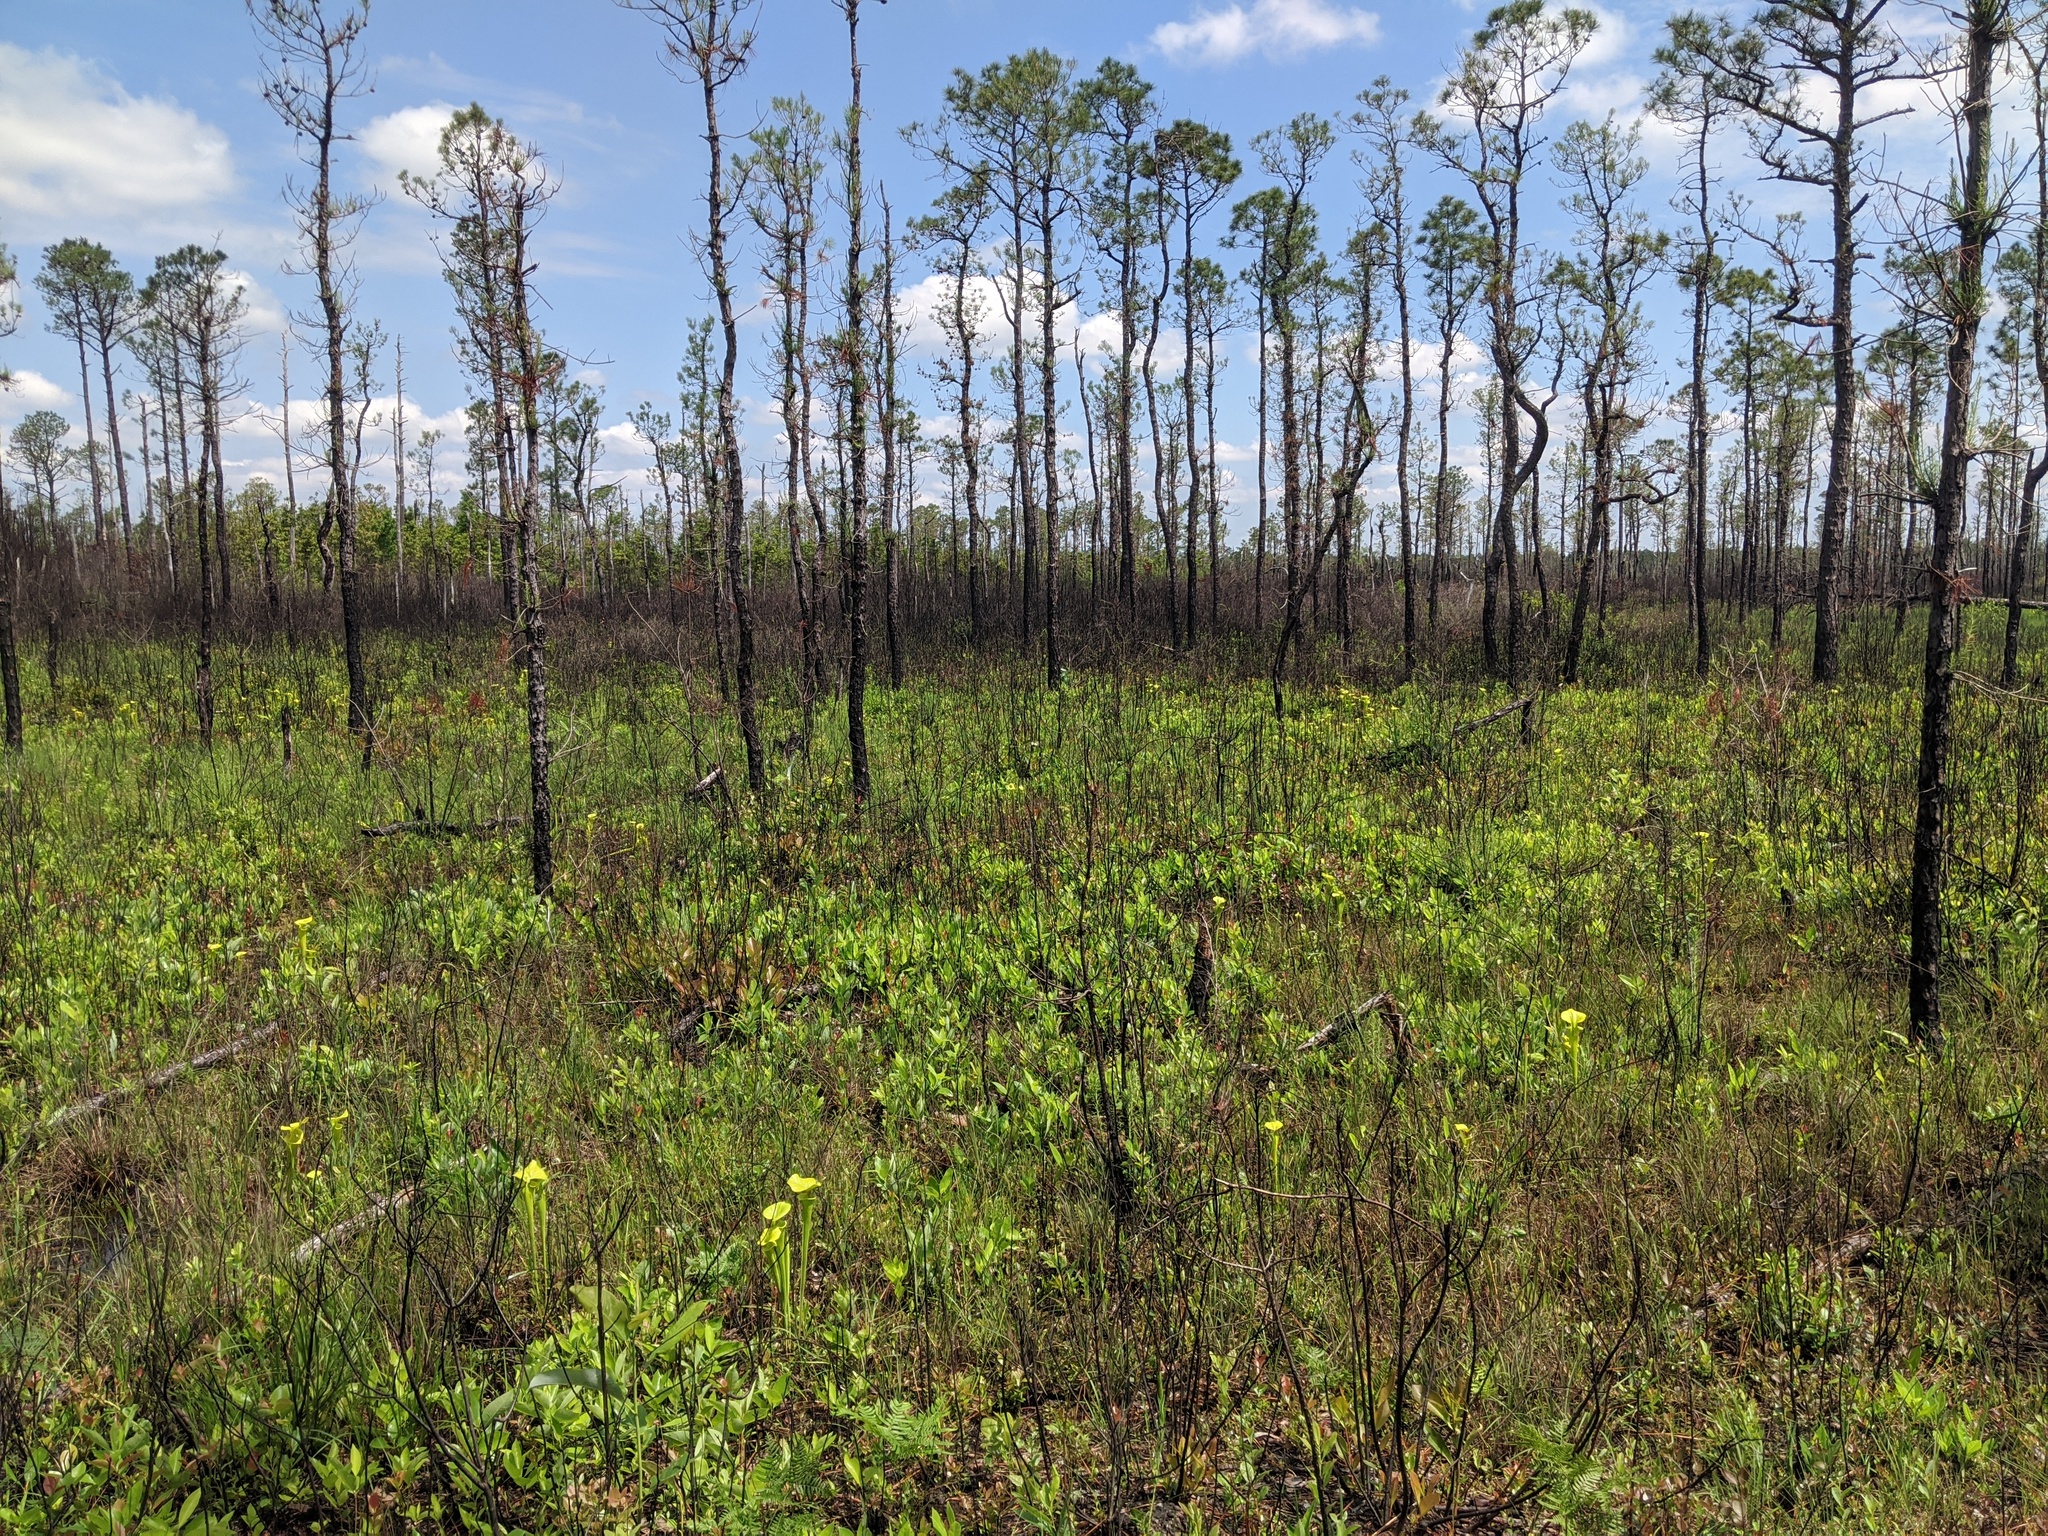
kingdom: Plantae
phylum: Tracheophyta
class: Magnoliopsida
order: Ericales
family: Sarraceniaceae
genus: Sarracenia
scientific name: Sarracenia flava
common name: Trumpets
